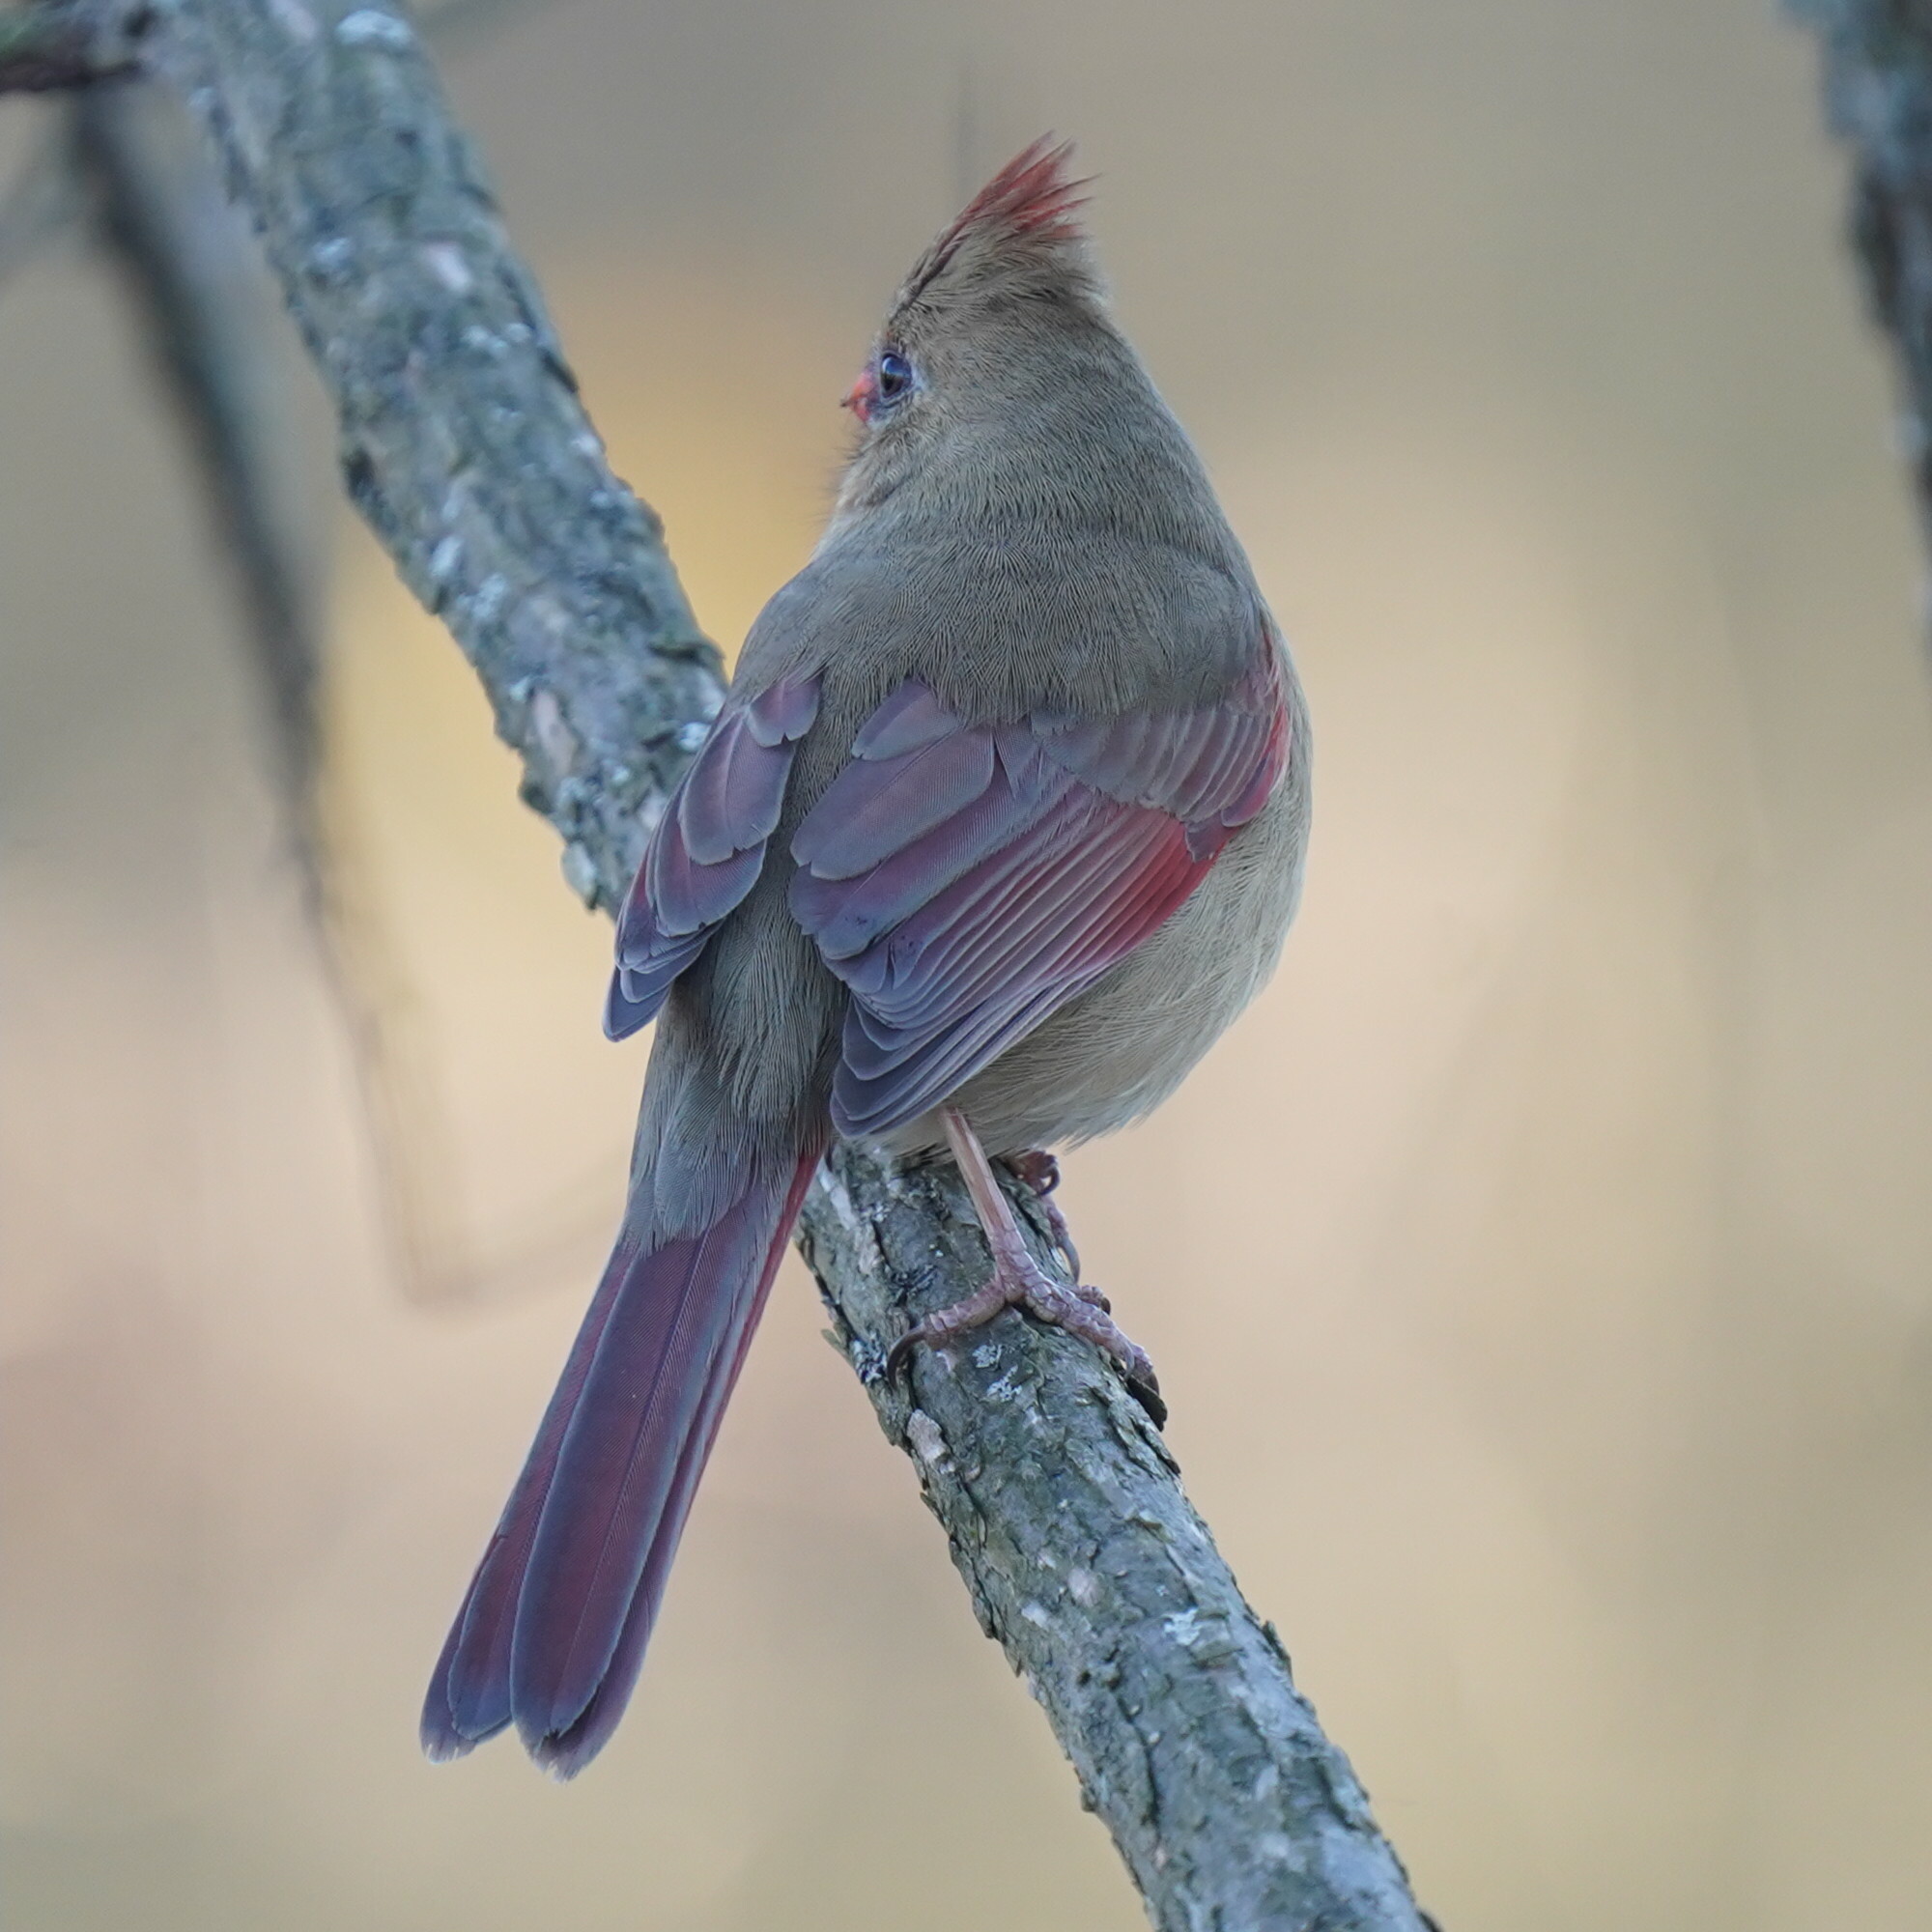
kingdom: Animalia
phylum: Chordata
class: Aves
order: Passeriformes
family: Cardinalidae
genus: Cardinalis
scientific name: Cardinalis cardinalis
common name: Northern cardinal
